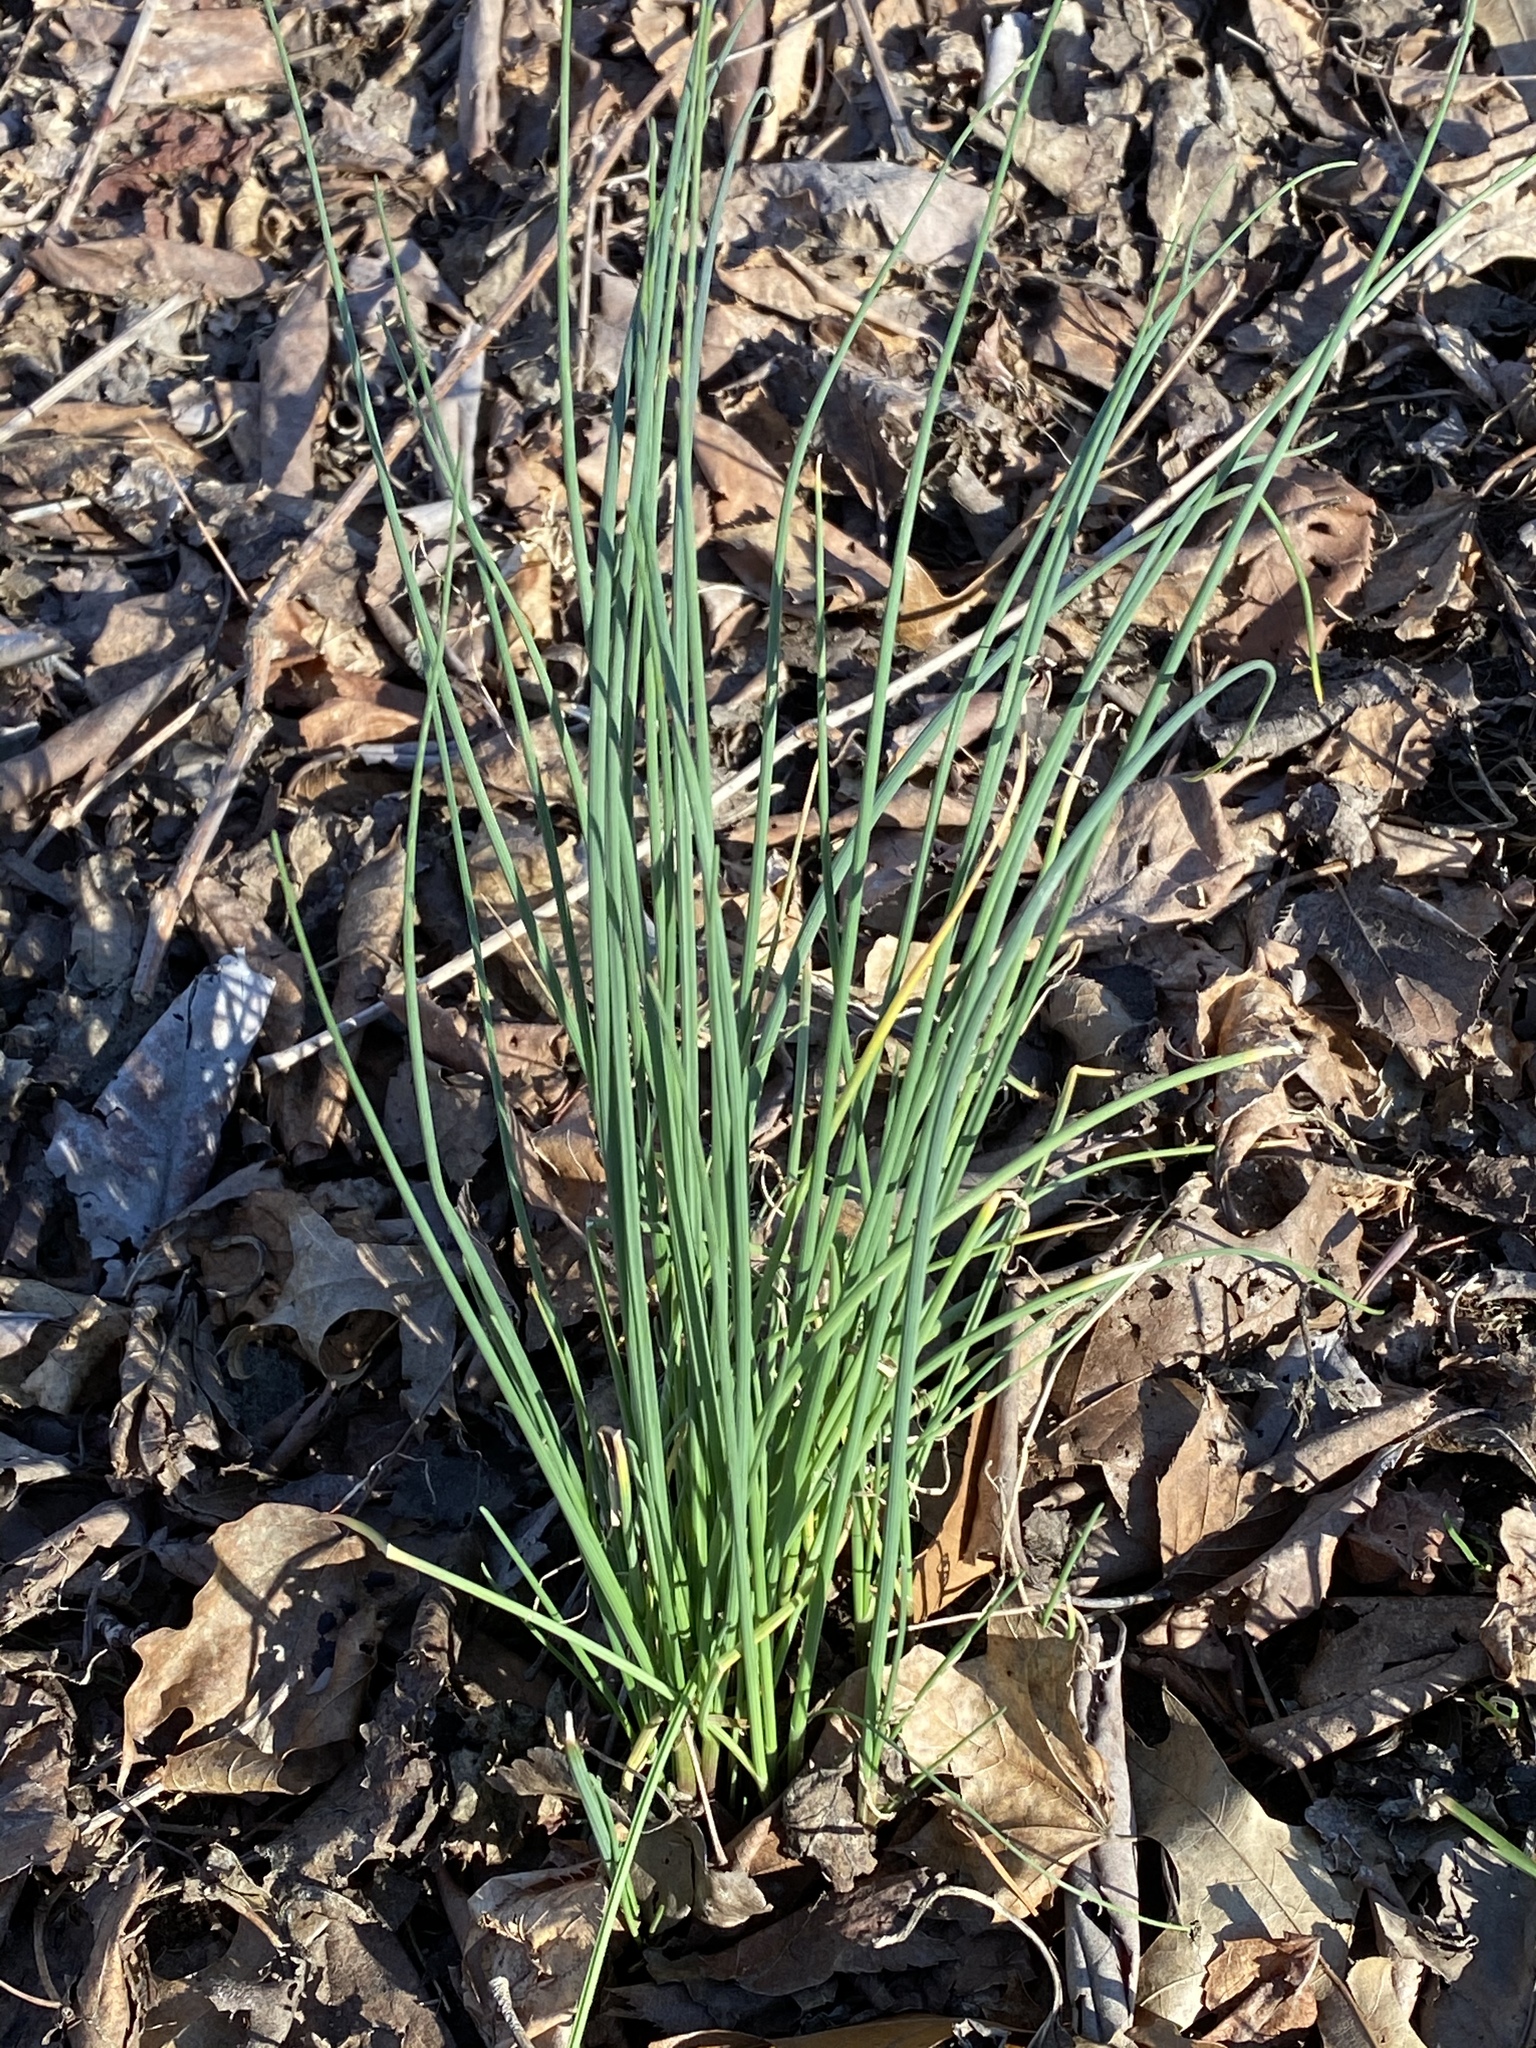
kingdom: Plantae
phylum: Tracheophyta
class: Liliopsida
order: Asparagales
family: Amaryllidaceae
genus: Allium
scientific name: Allium vineale
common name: Crow garlic
